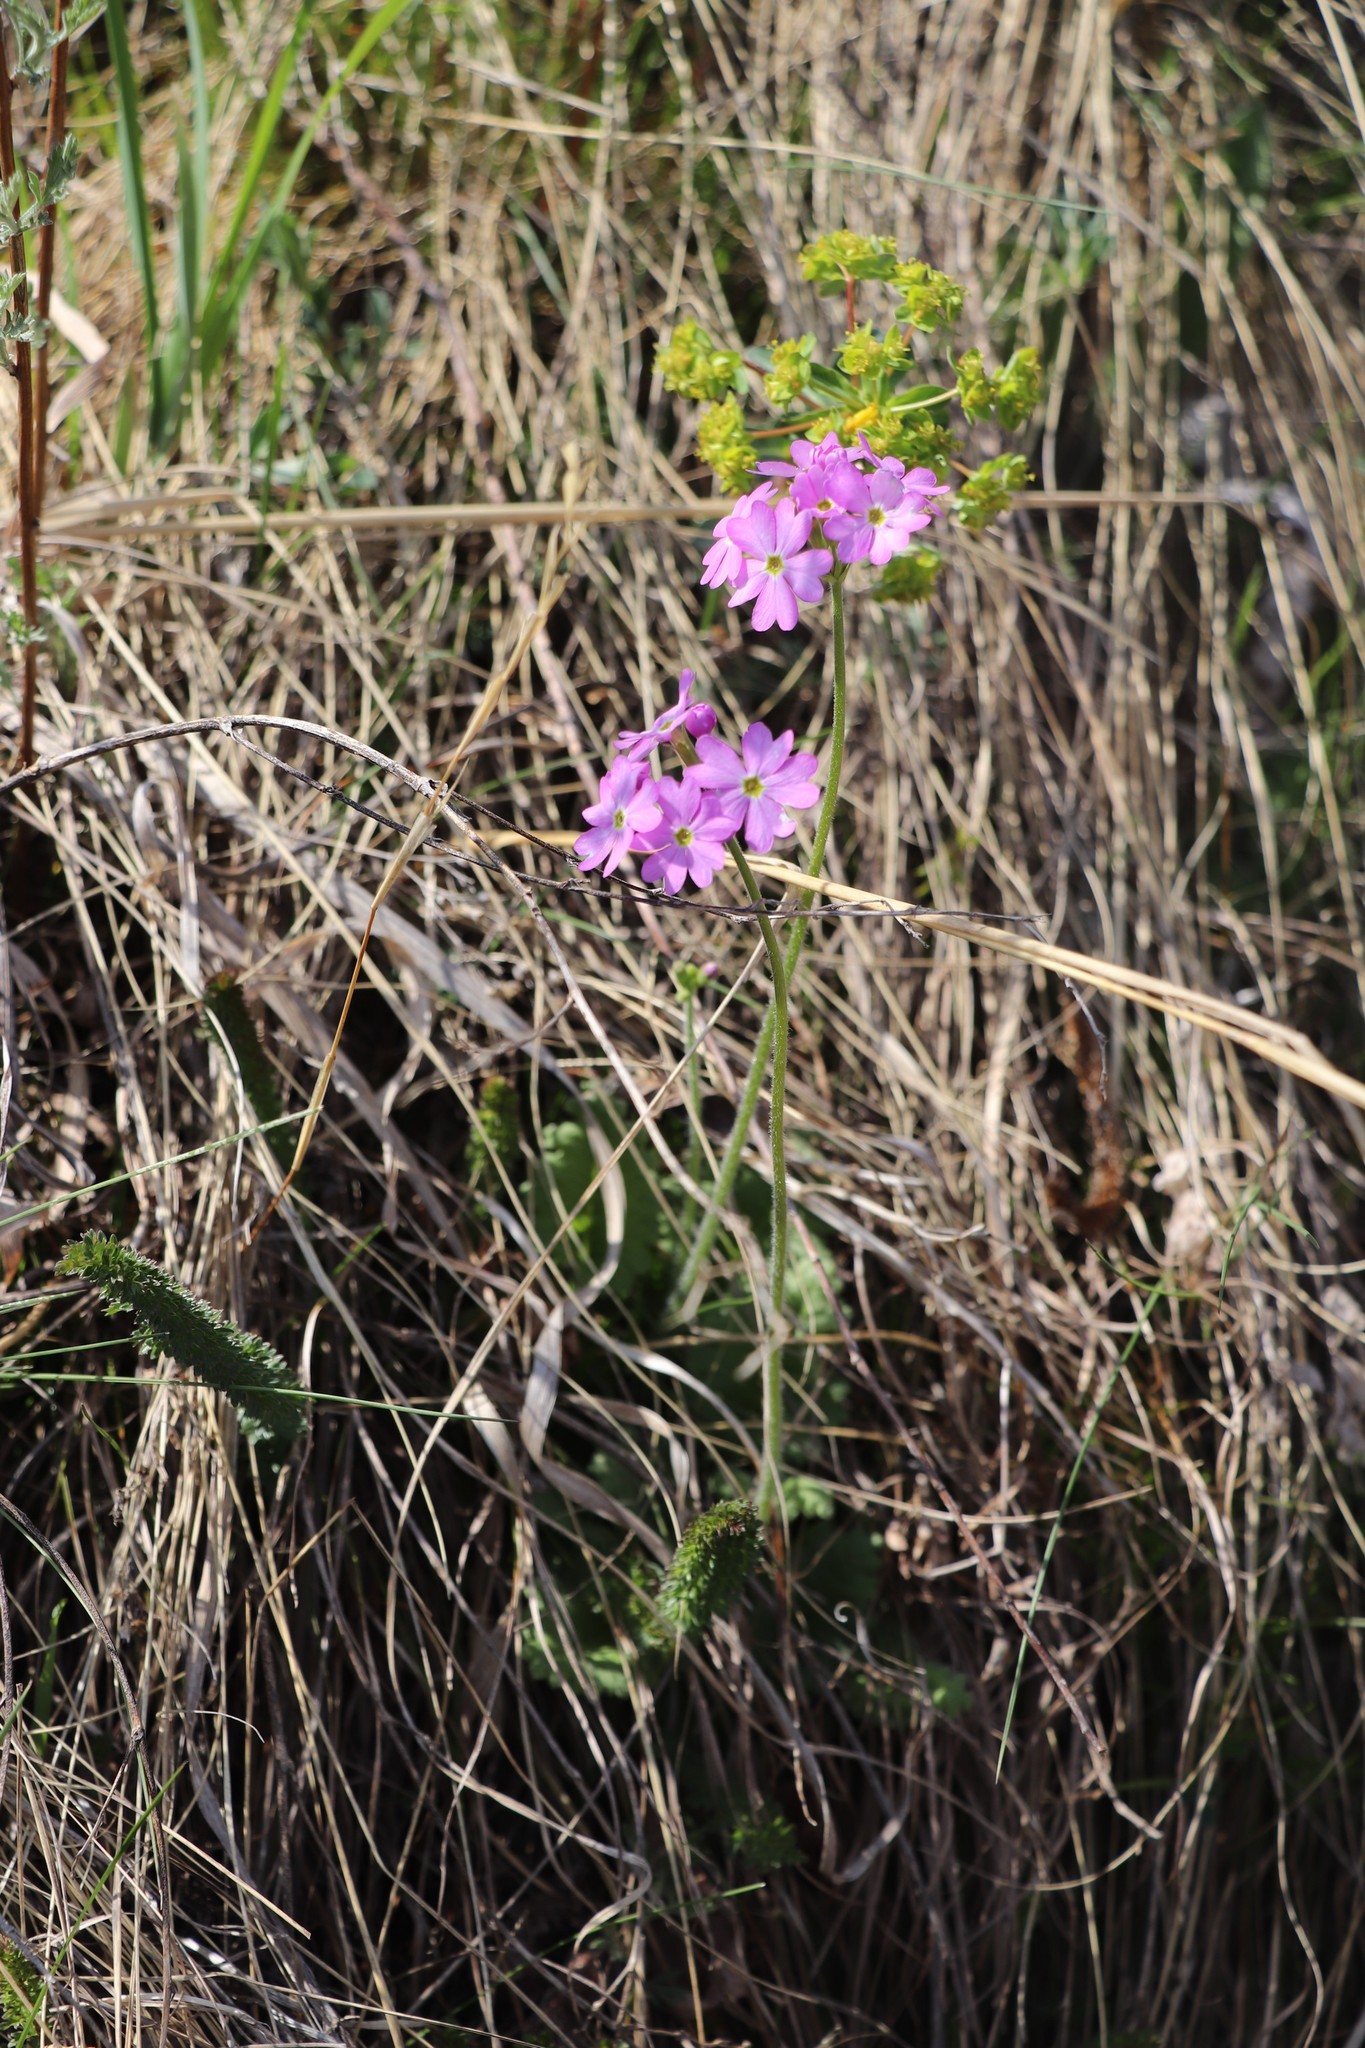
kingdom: Plantae
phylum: Tracheophyta
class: Magnoliopsida
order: Ericales
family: Primulaceae
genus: Primula
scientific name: Primula cortusoides
